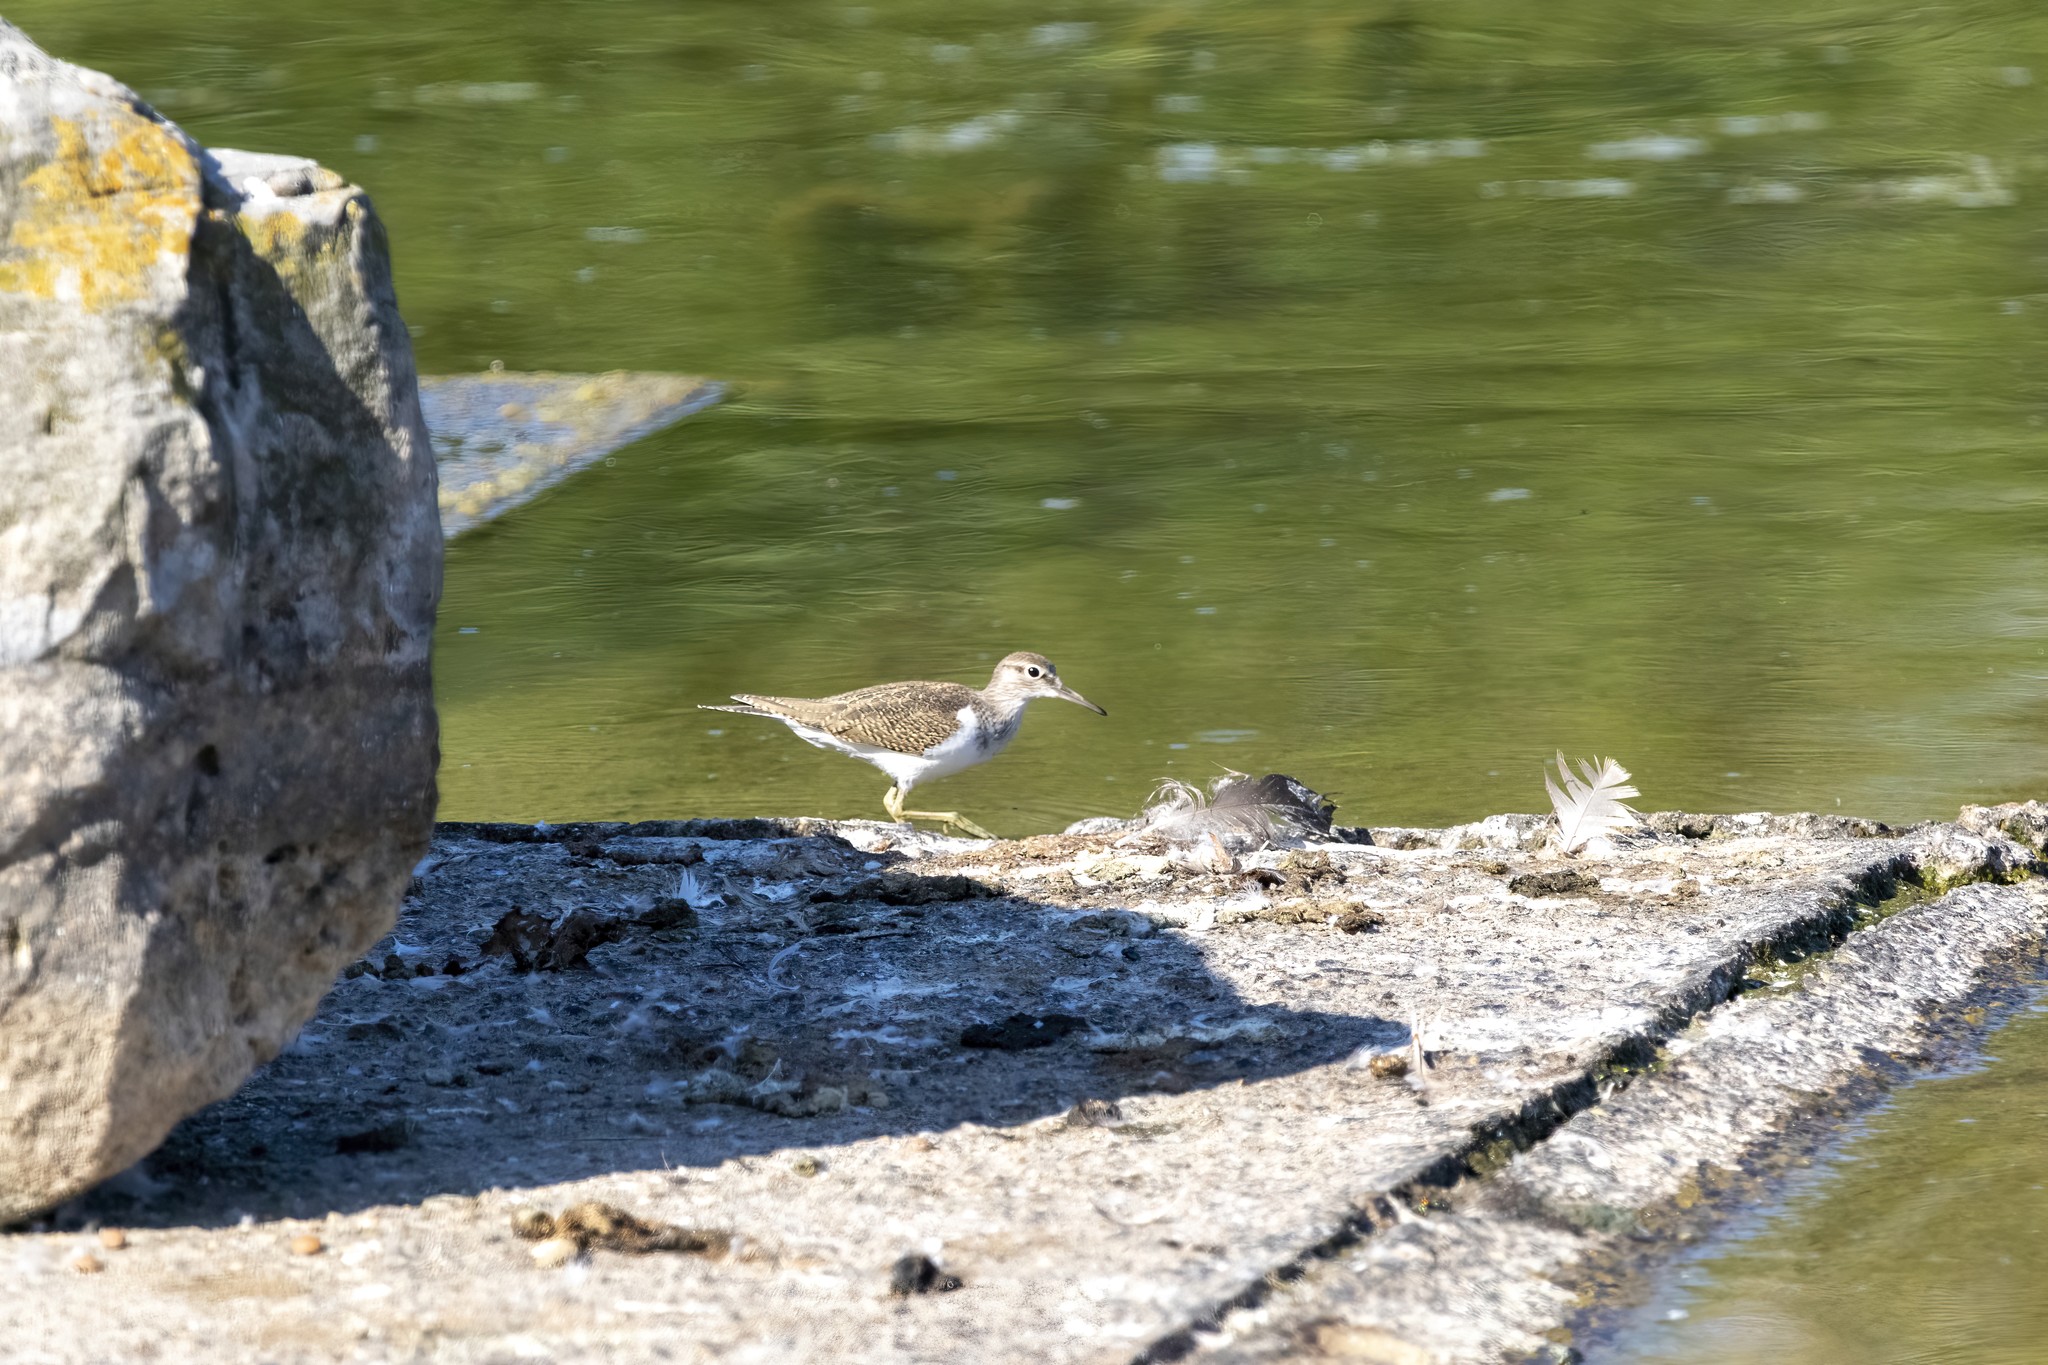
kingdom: Animalia
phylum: Chordata
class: Aves
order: Charadriiformes
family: Scolopacidae
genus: Actitis
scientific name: Actitis hypoleucos
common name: Common sandpiper
